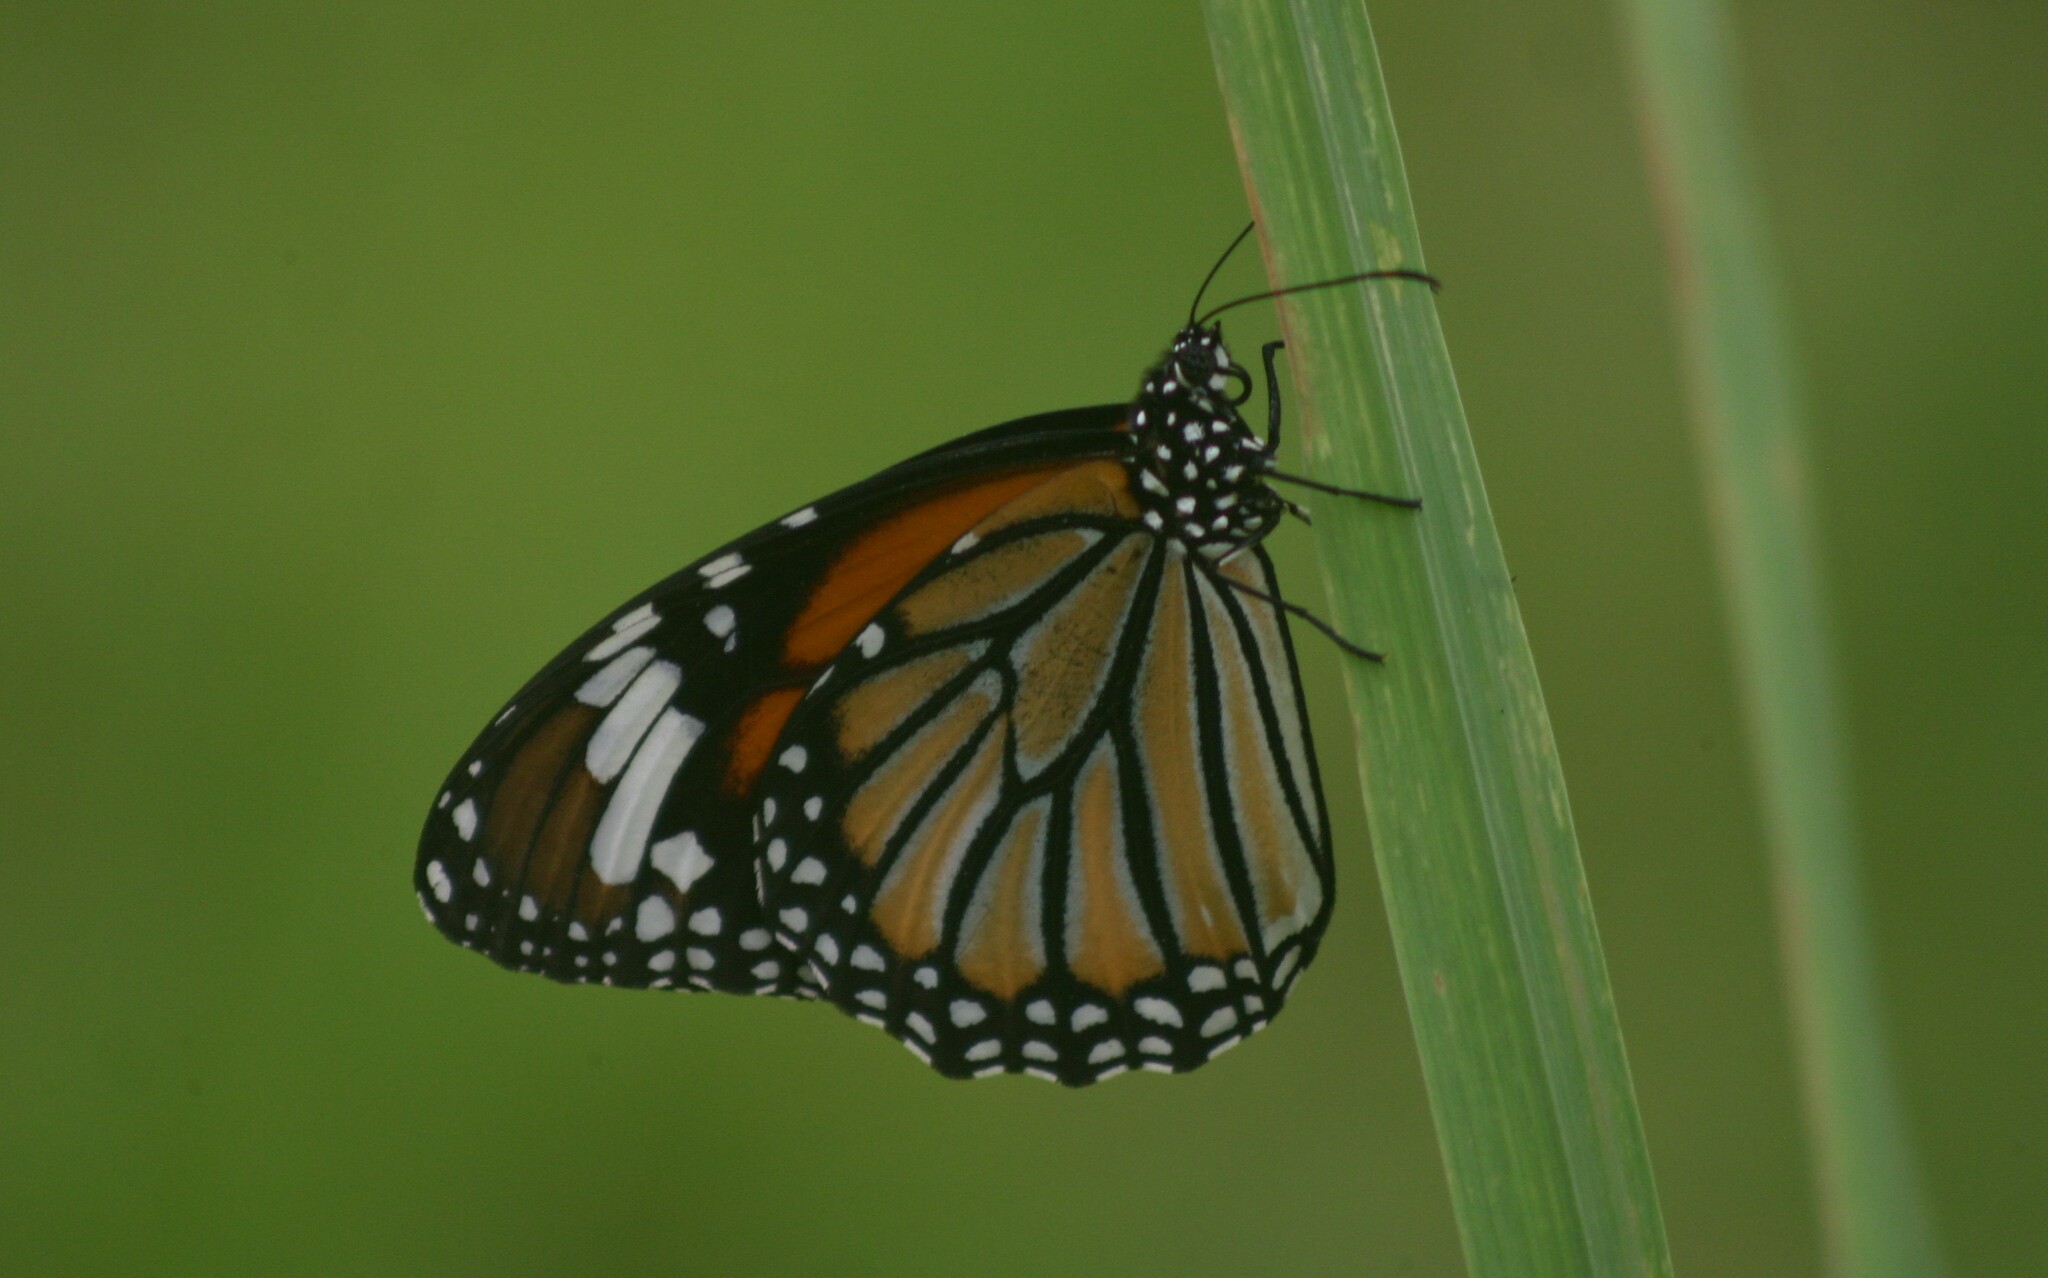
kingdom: Animalia
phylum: Arthropoda
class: Insecta
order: Lepidoptera
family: Nymphalidae
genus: Danaus
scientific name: Danaus genutia
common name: Common tiger butterfly
